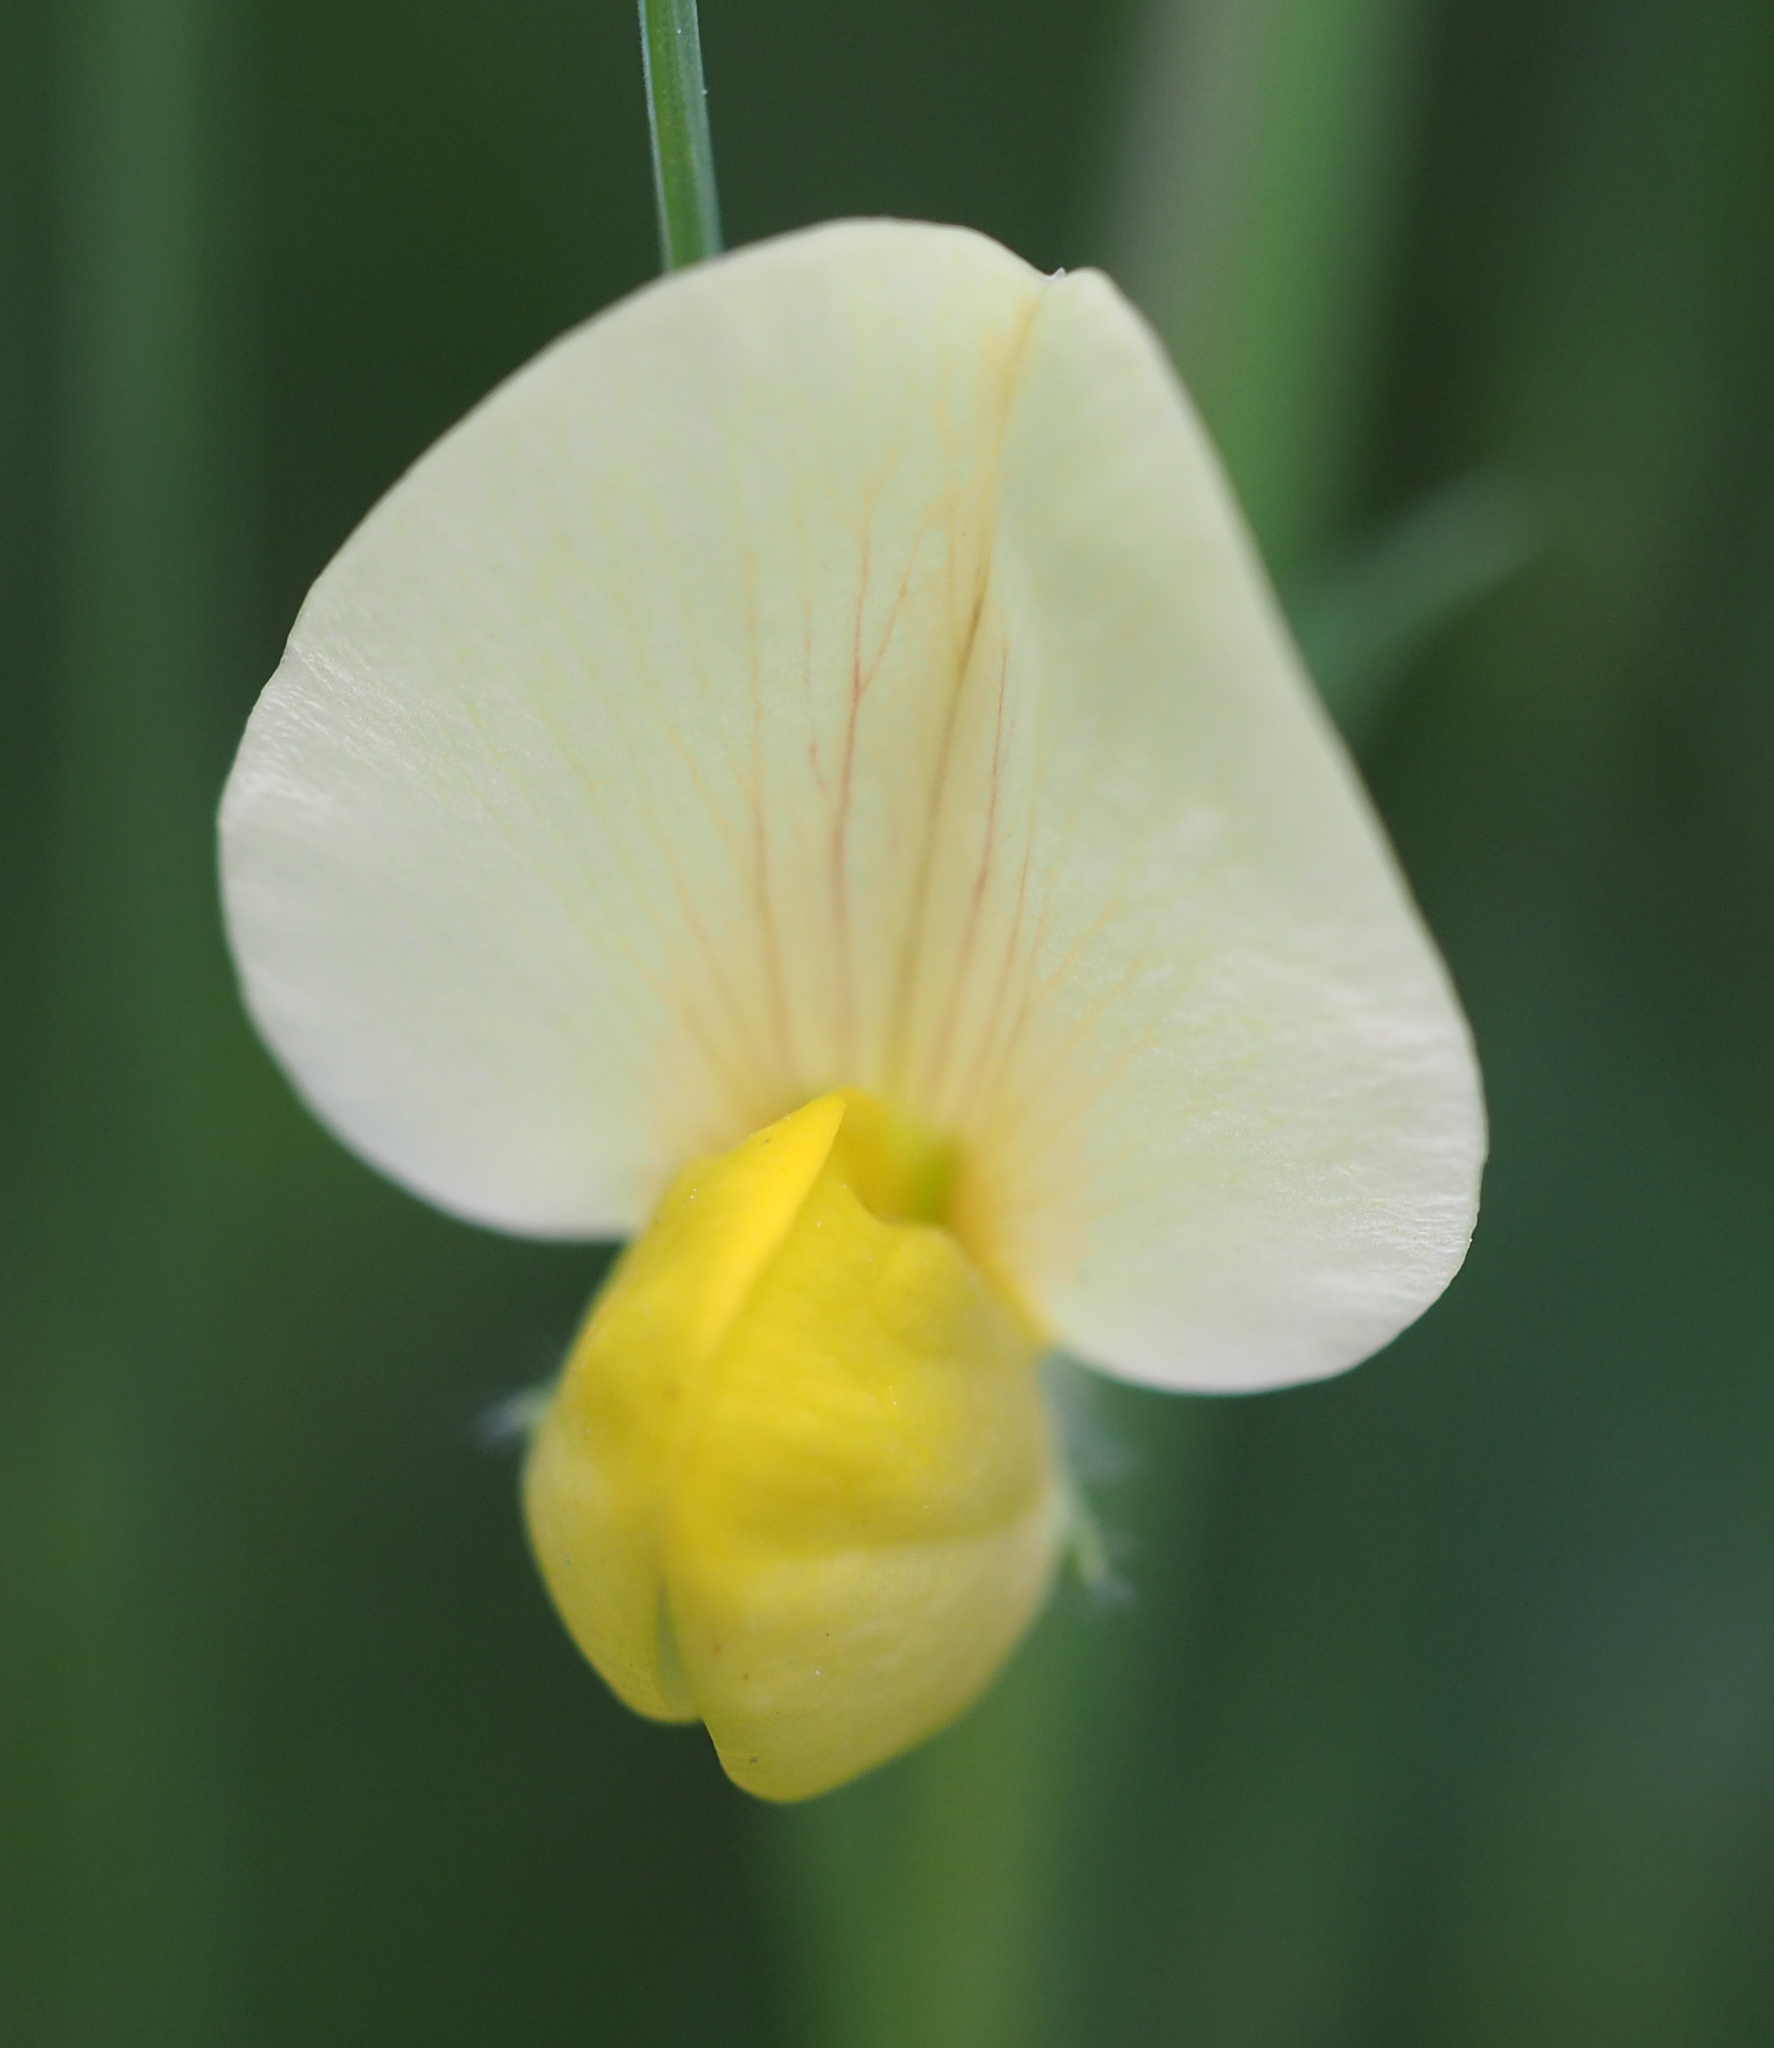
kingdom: Plantae
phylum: Tracheophyta
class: Magnoliopsida
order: Fabales
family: Fabaceae
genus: Lotus
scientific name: Lotus maritimus
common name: Dragon's-teeth
